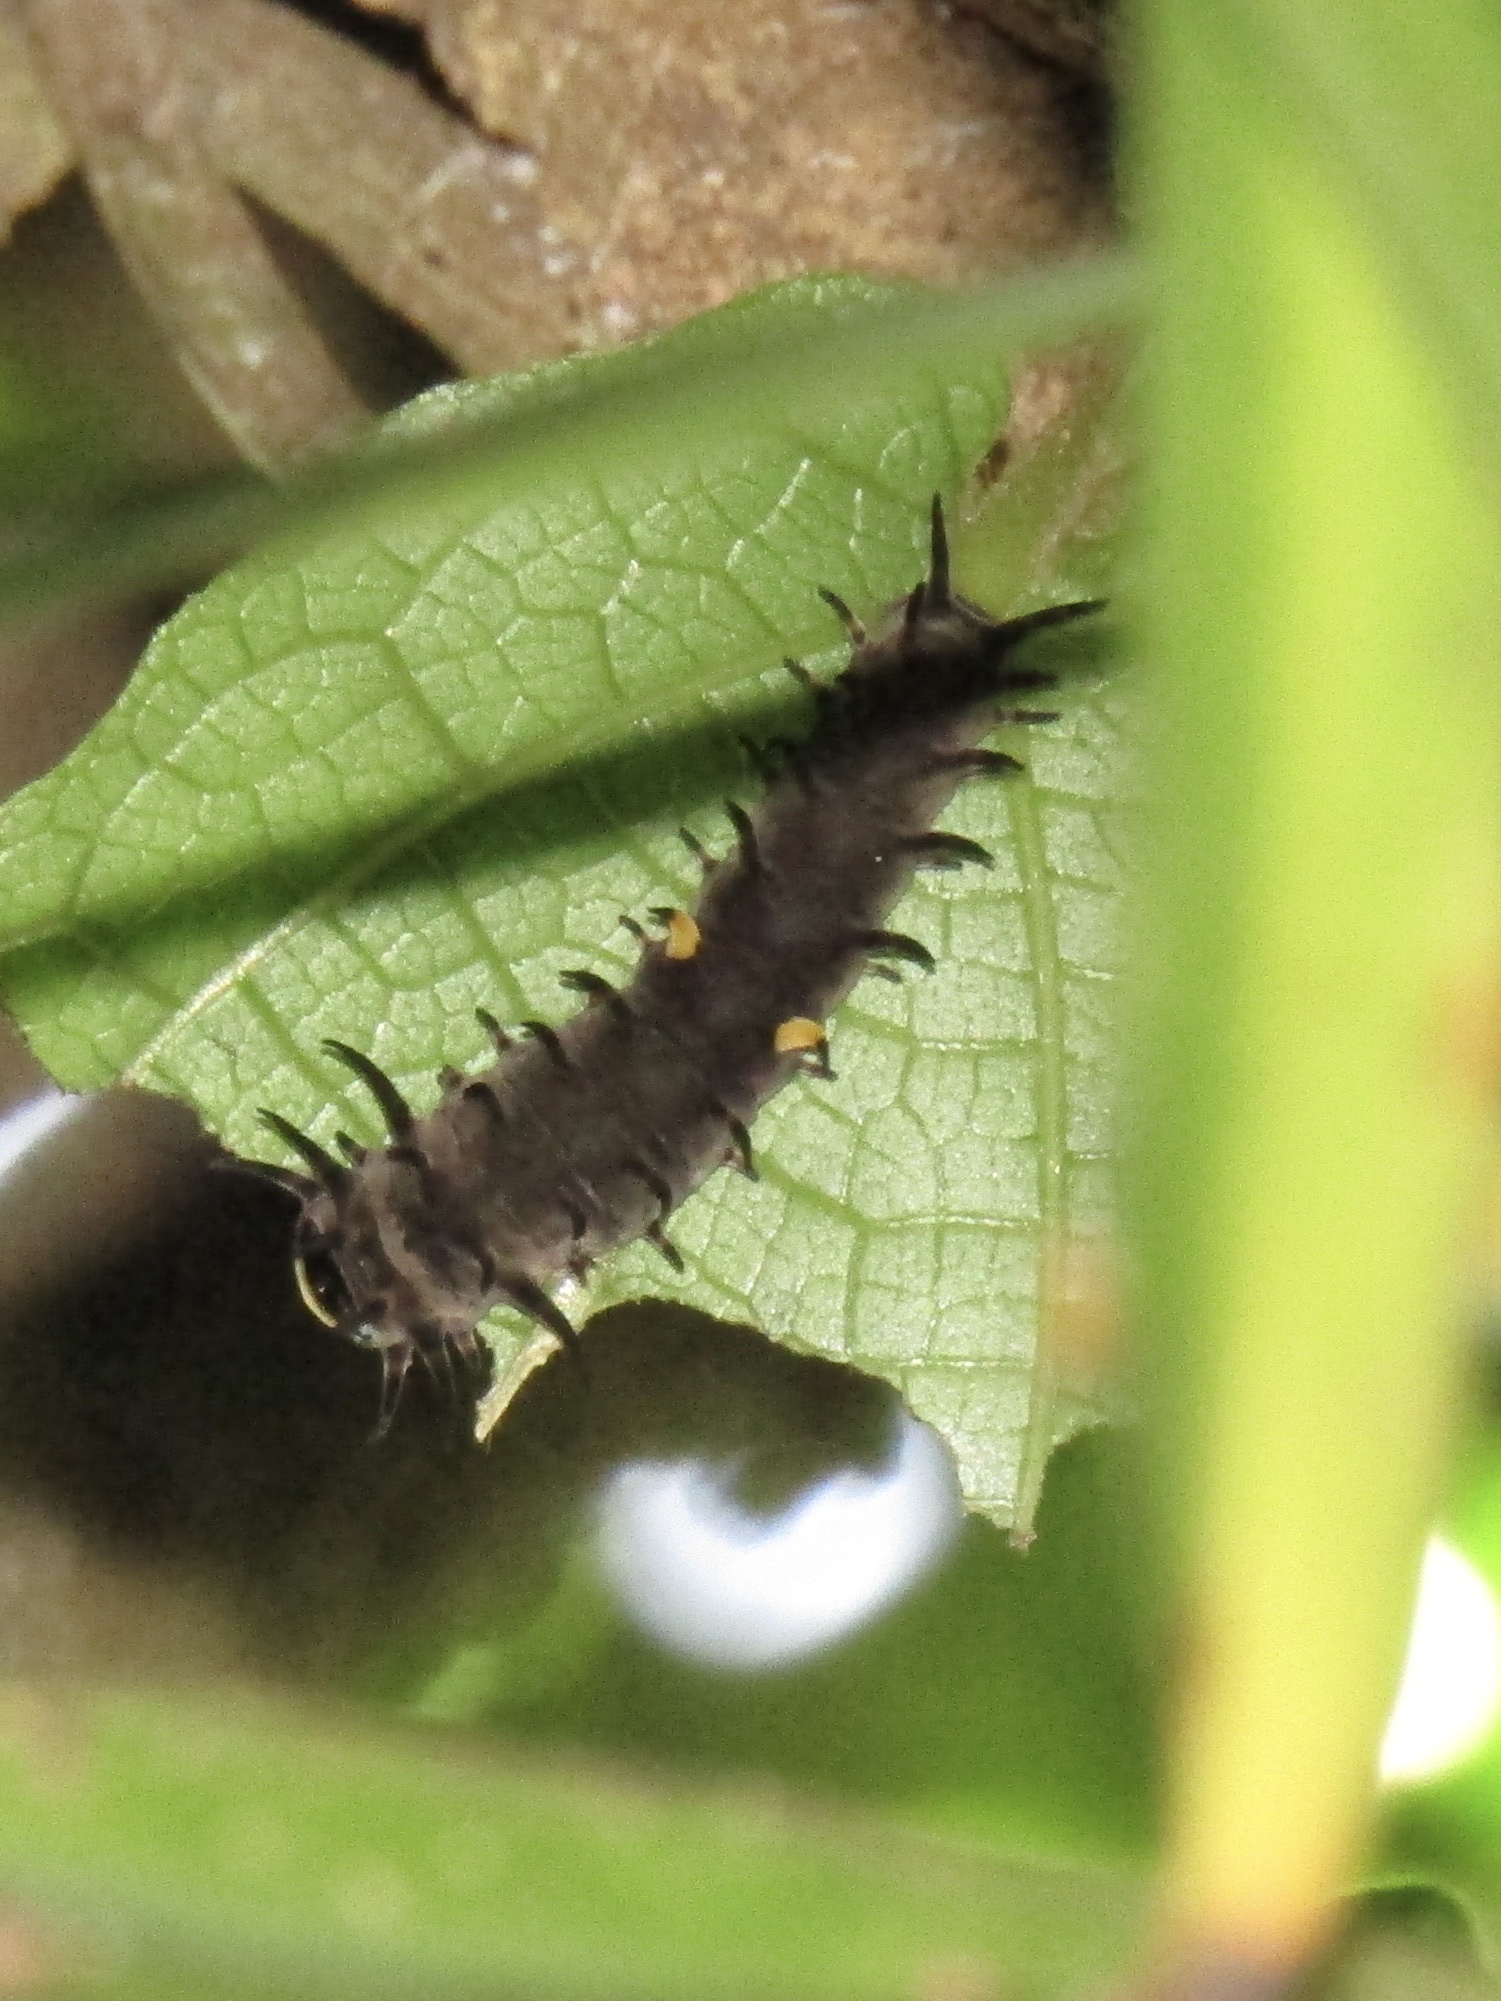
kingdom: Animalia
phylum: Arthropoda
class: Insecta
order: Lepidoptera
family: Papilionidae
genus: Ornithoptera
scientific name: Ornithoptera richmondia
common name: Richmond birdwing
